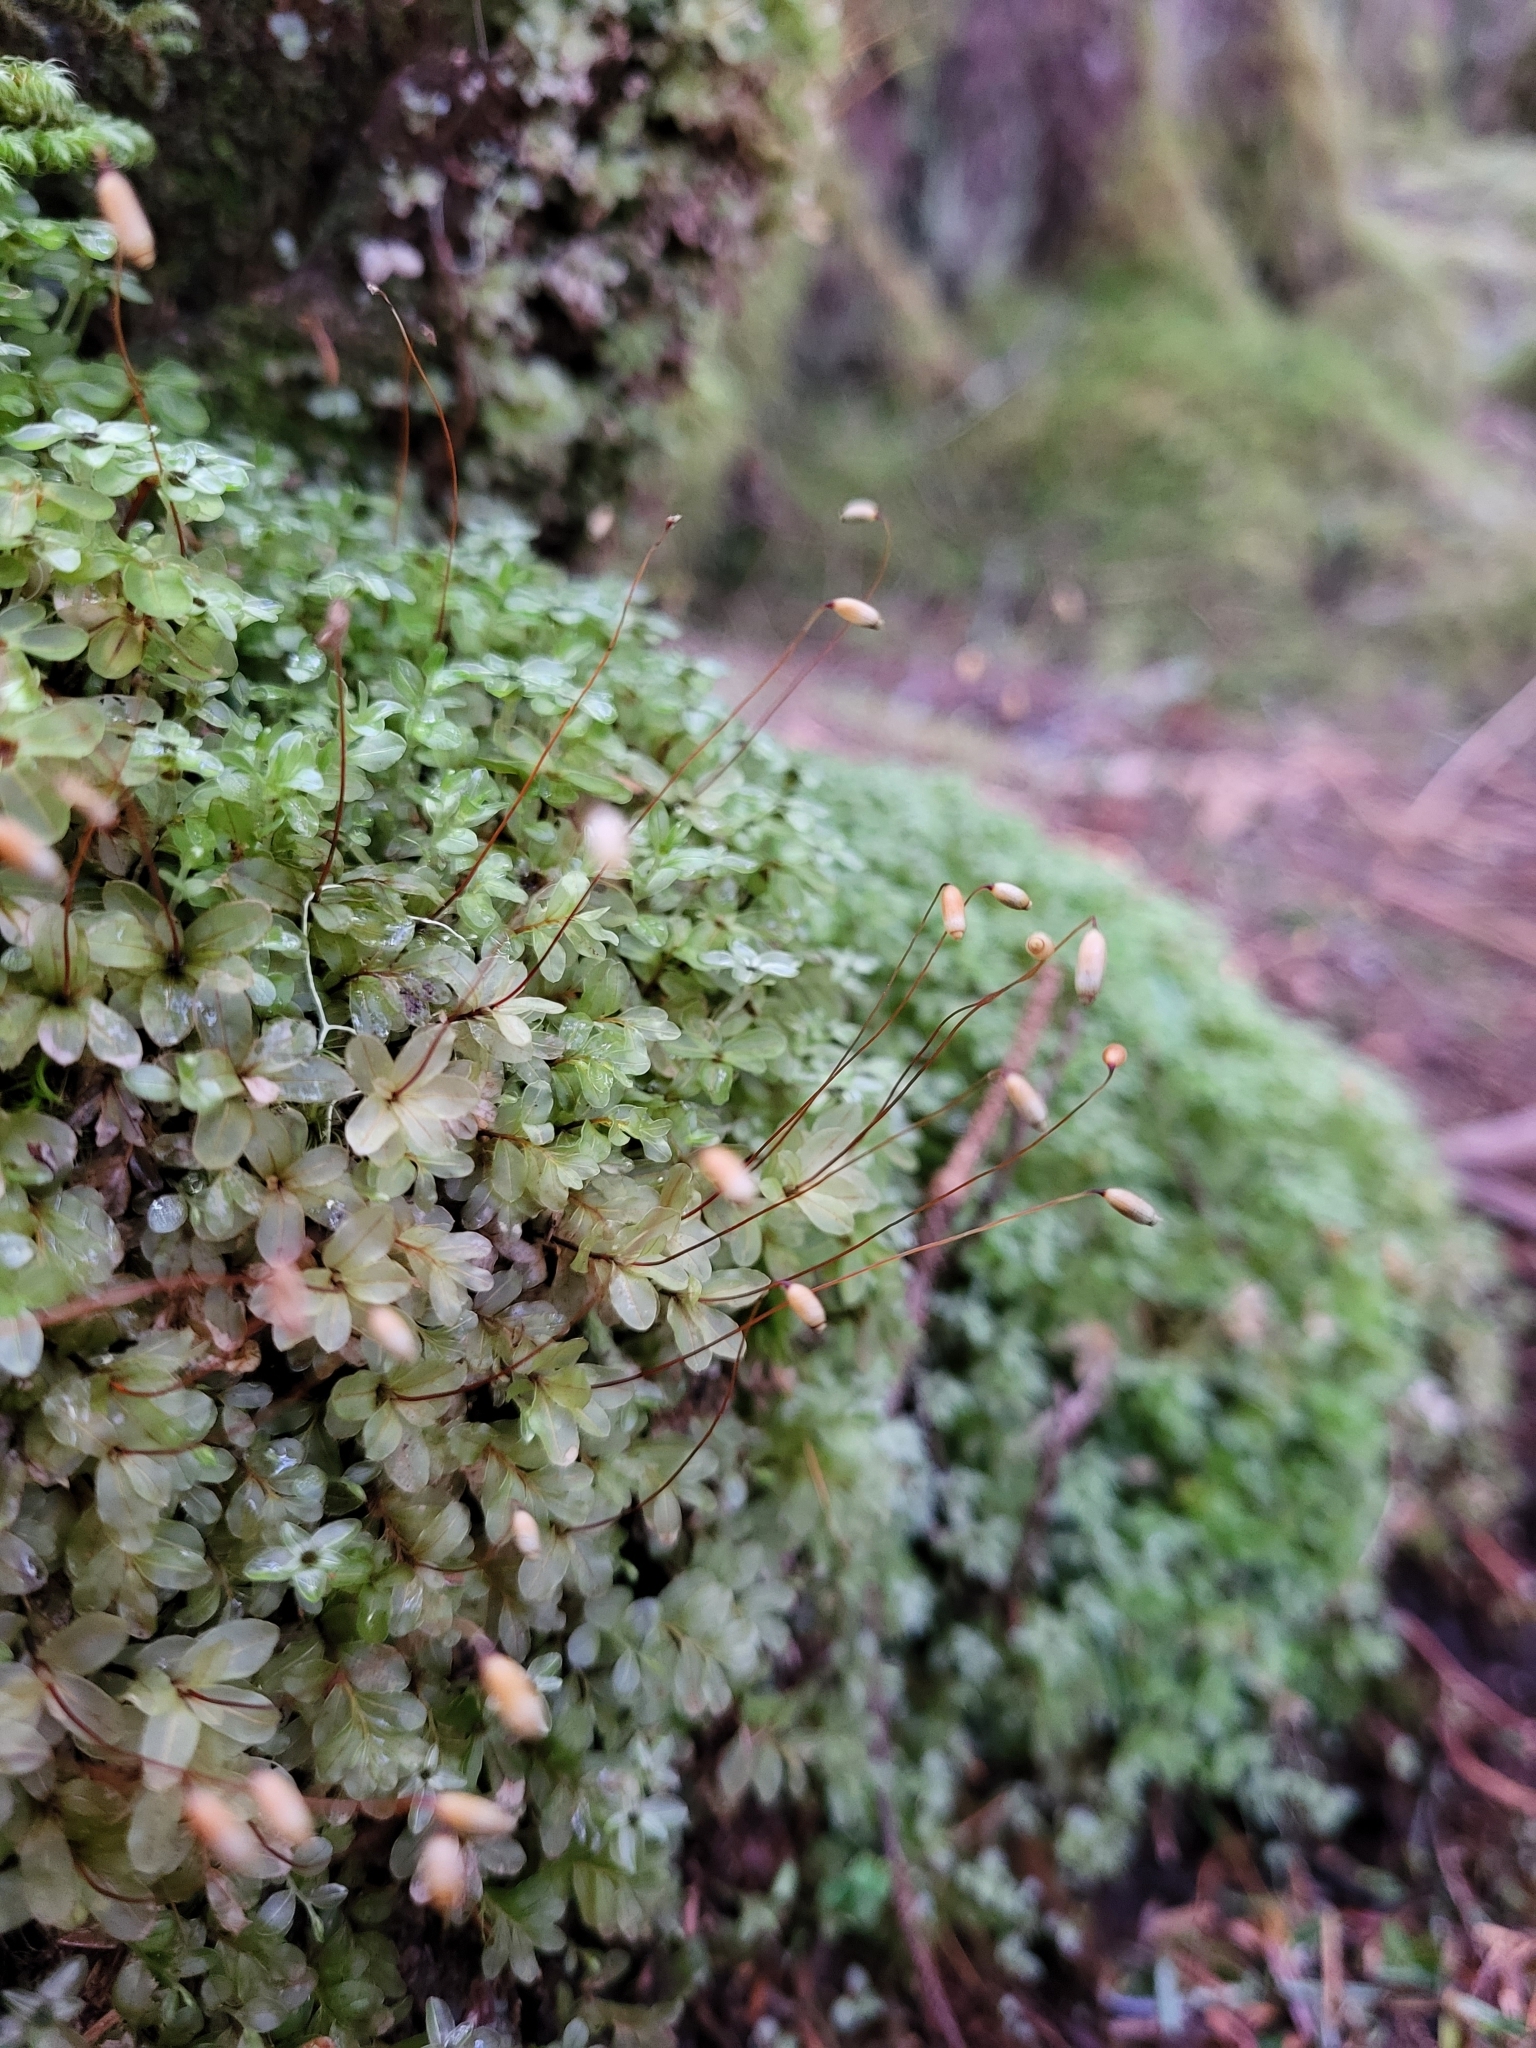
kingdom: Plantae
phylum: Bryophyta
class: Bryopsida
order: Bryales
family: Mniaceae
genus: Rhizomnium
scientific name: Rhizomnium glabrescens
